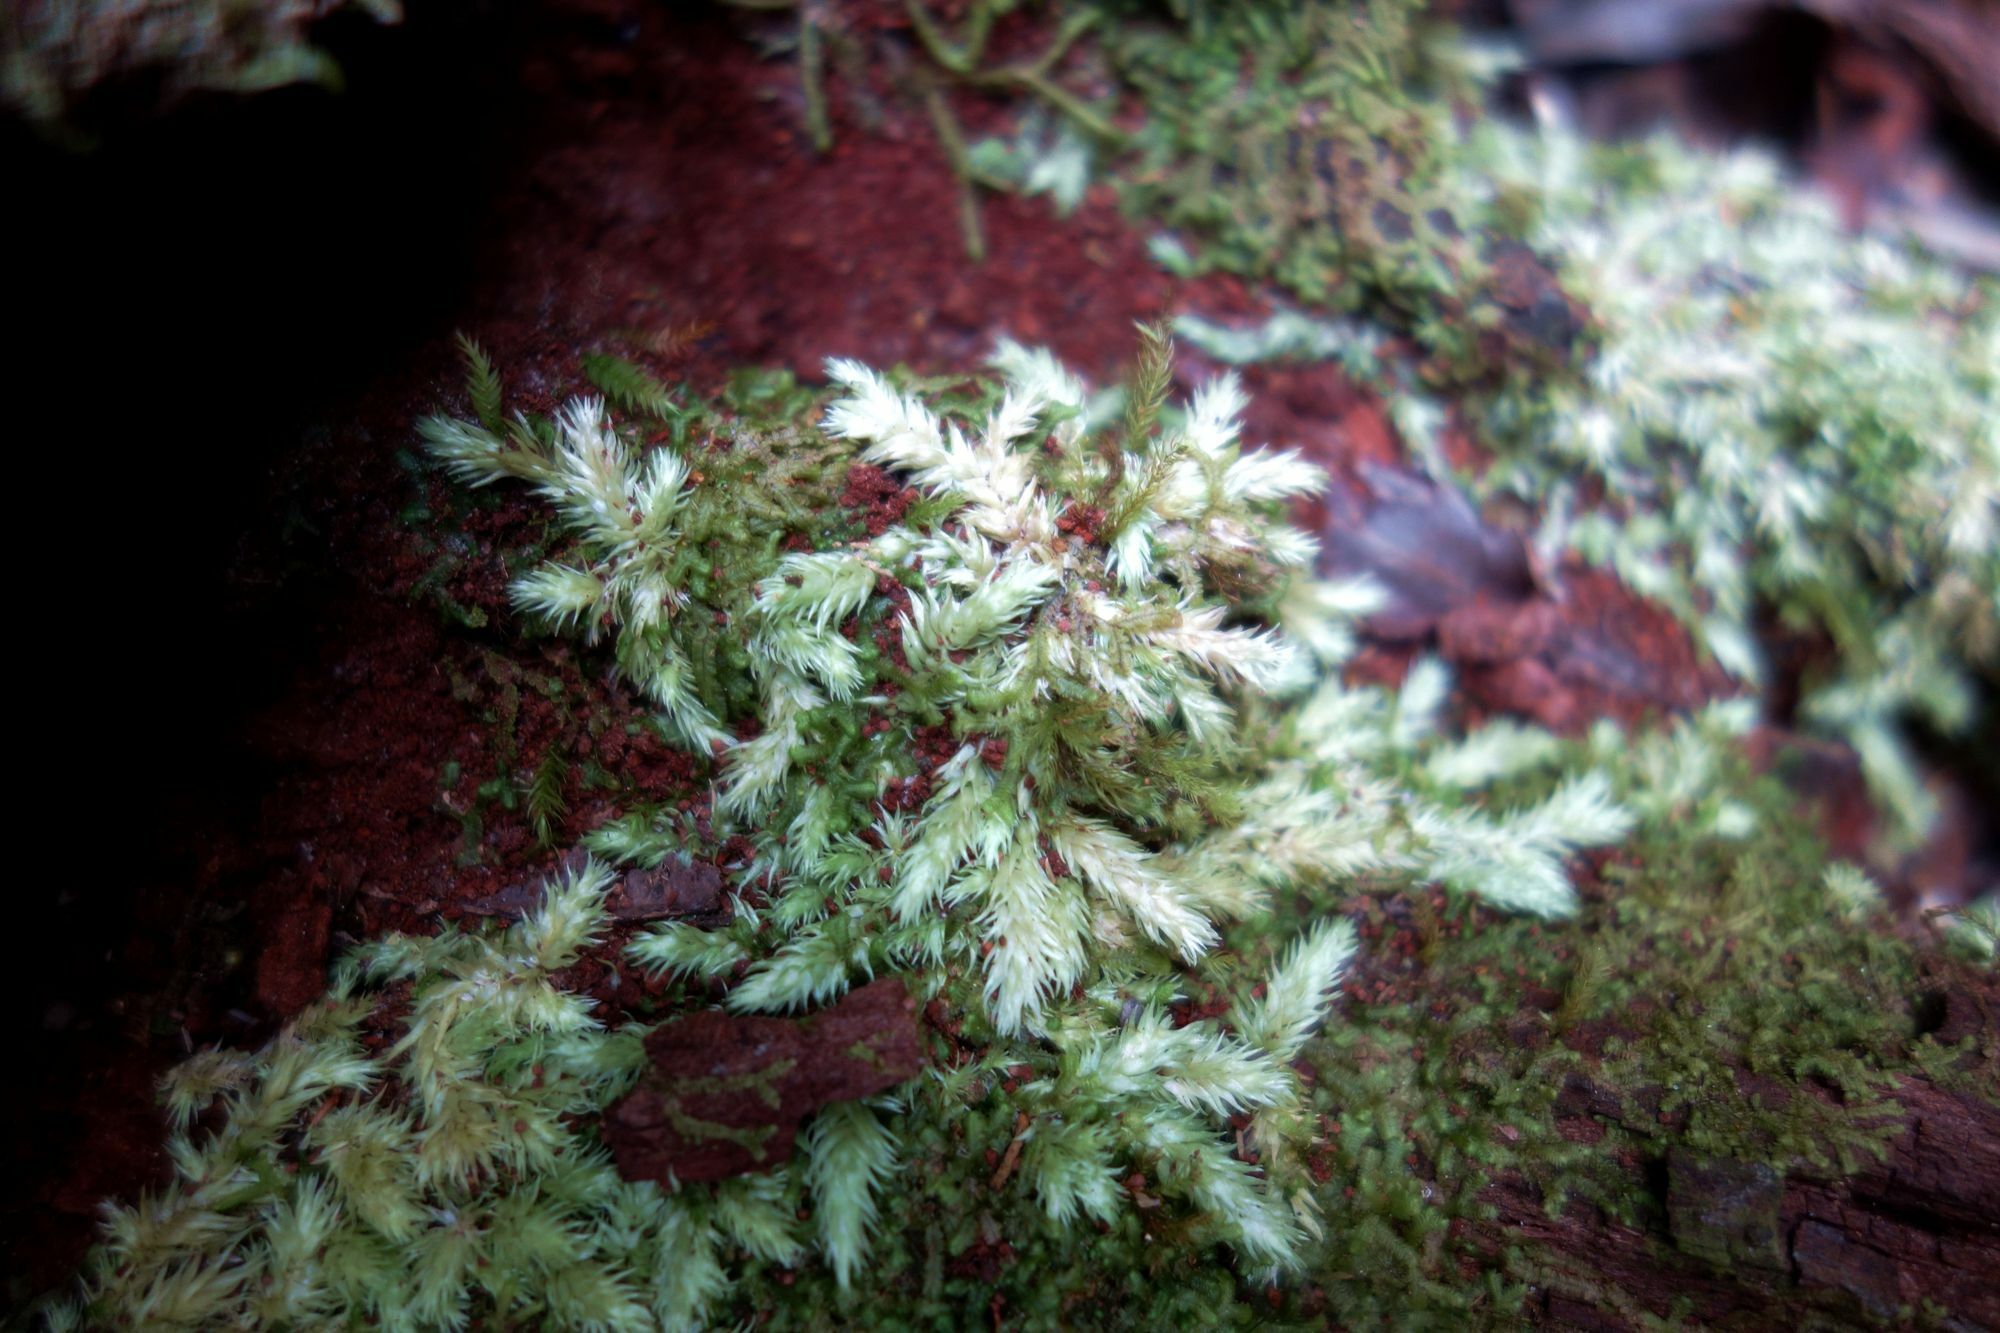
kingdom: Plantae
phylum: Bryophyta
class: Bryopsida
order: Dicranales
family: Leucobryaceae
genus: Leucobryum
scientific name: Leucobryum javense
